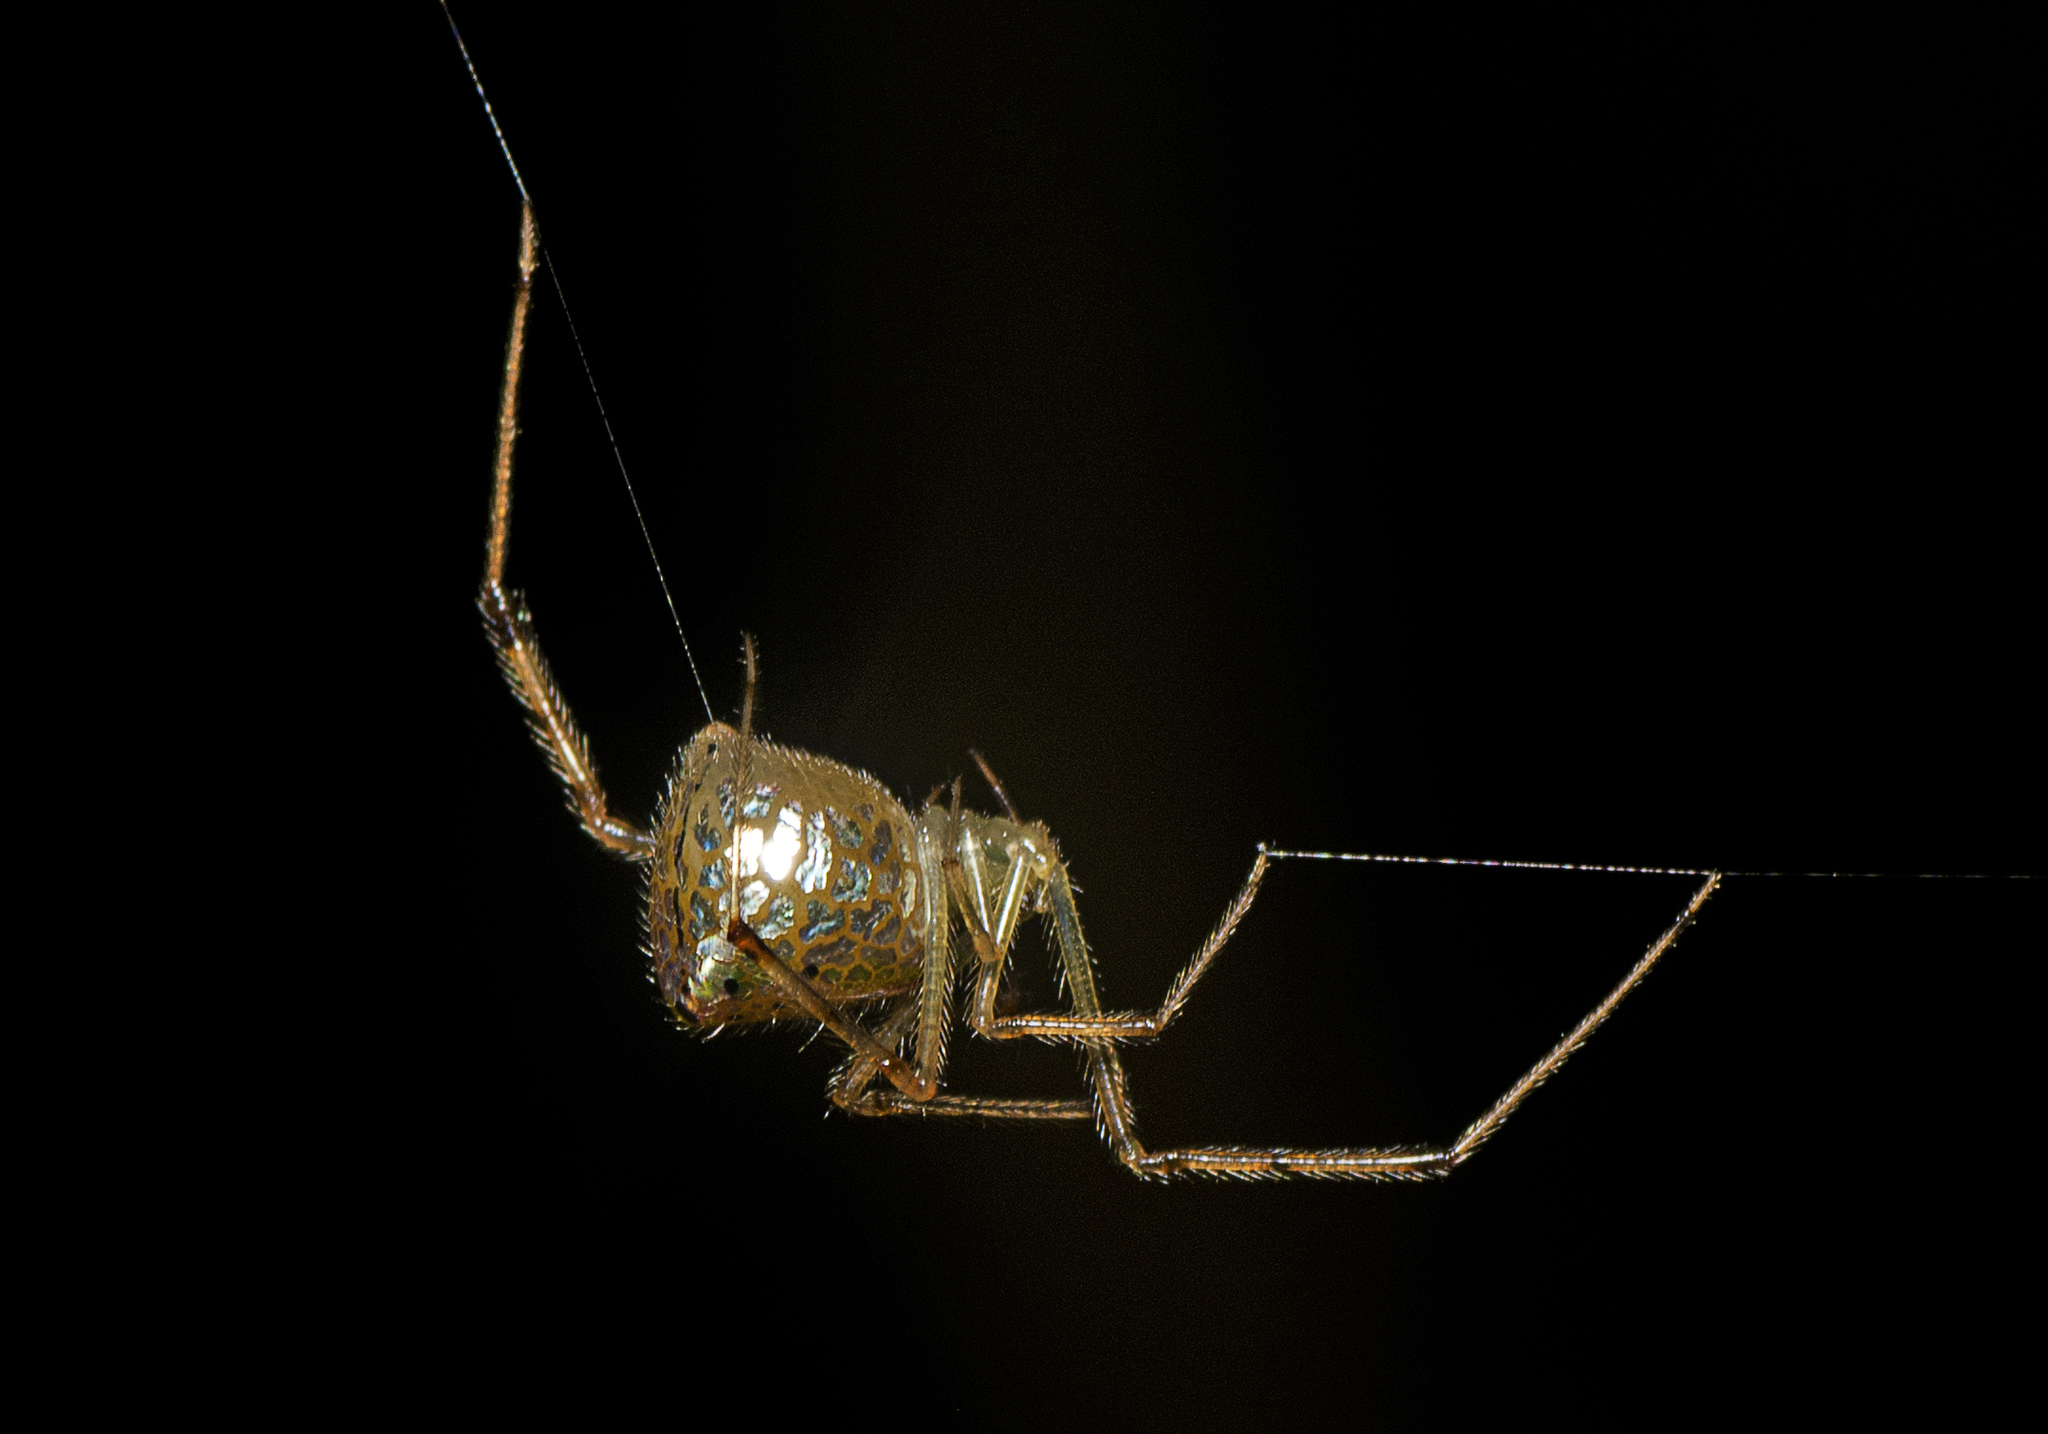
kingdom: Animalia
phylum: Arthropoda
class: Arachnida
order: Araneae
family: Theridiidae
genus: Thwaitesia
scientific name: Thwaitesia nigronodosa
